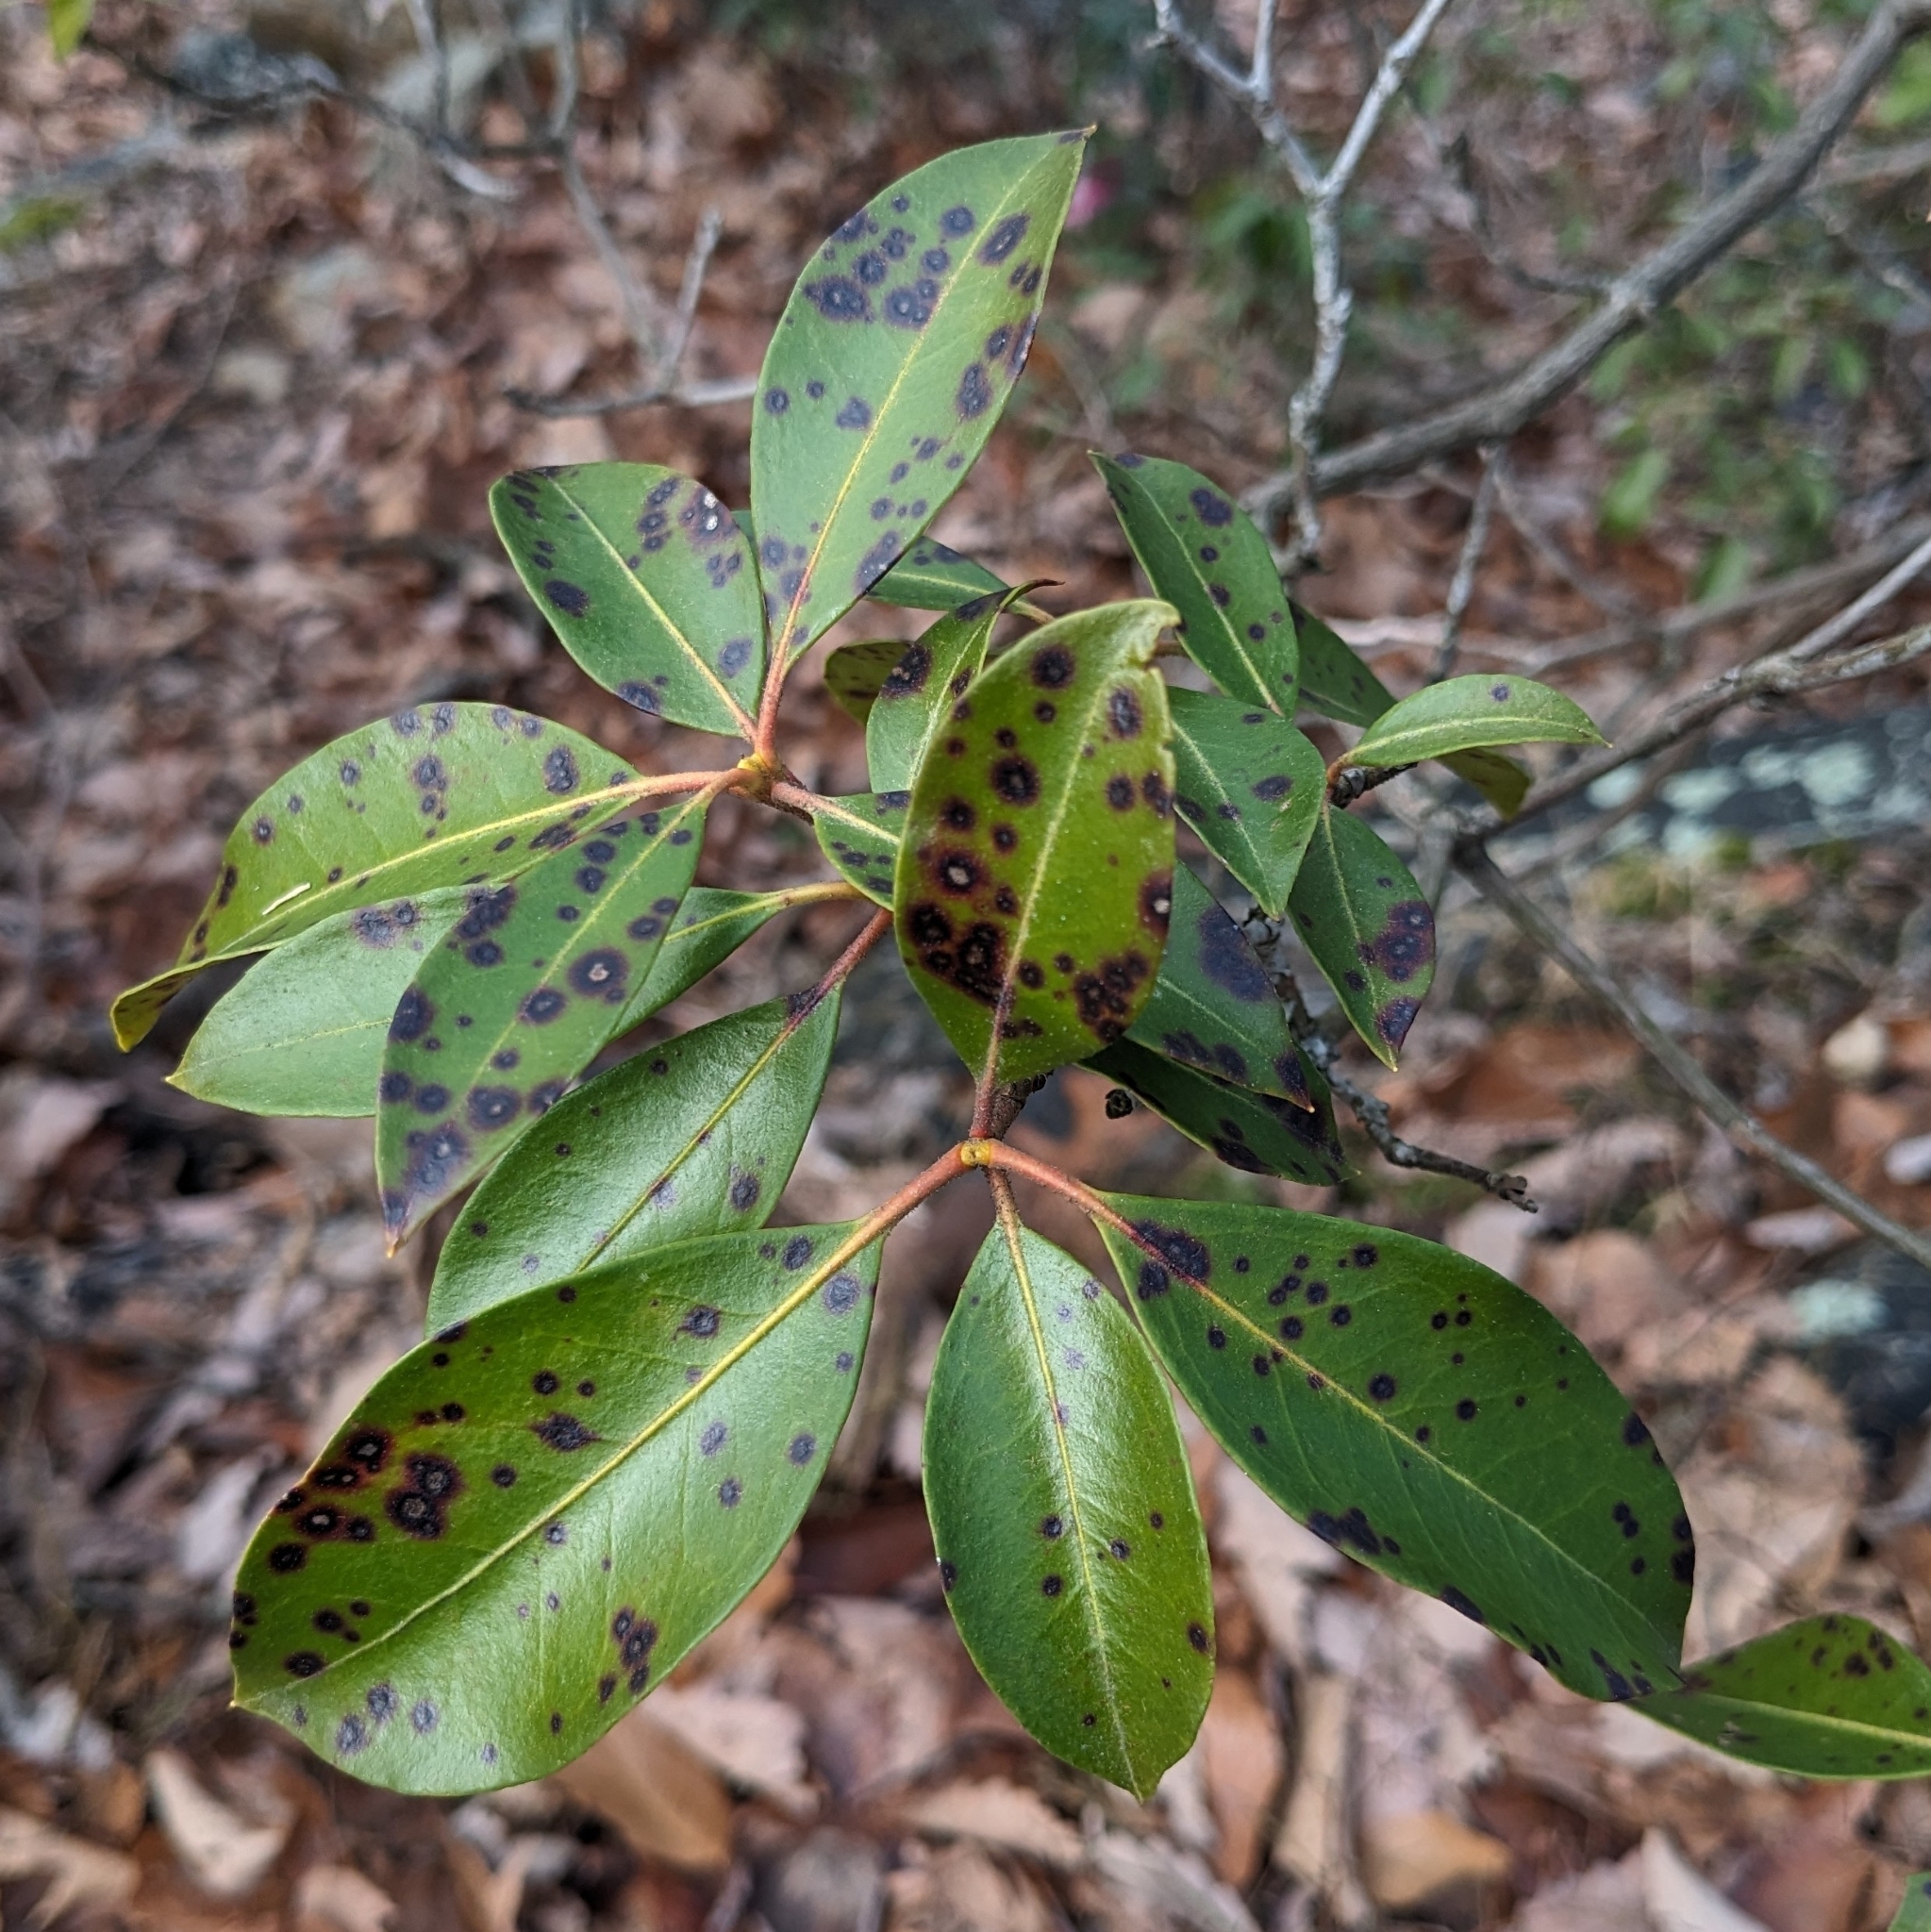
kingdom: Fungi
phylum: Ascomycota
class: Dothideomycetes
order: Mycosphaerellales
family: Mycosphaerellaceae
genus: Mycosphaerella
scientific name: Mycosphaerella colorata
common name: Mountain laurel leaf spot
